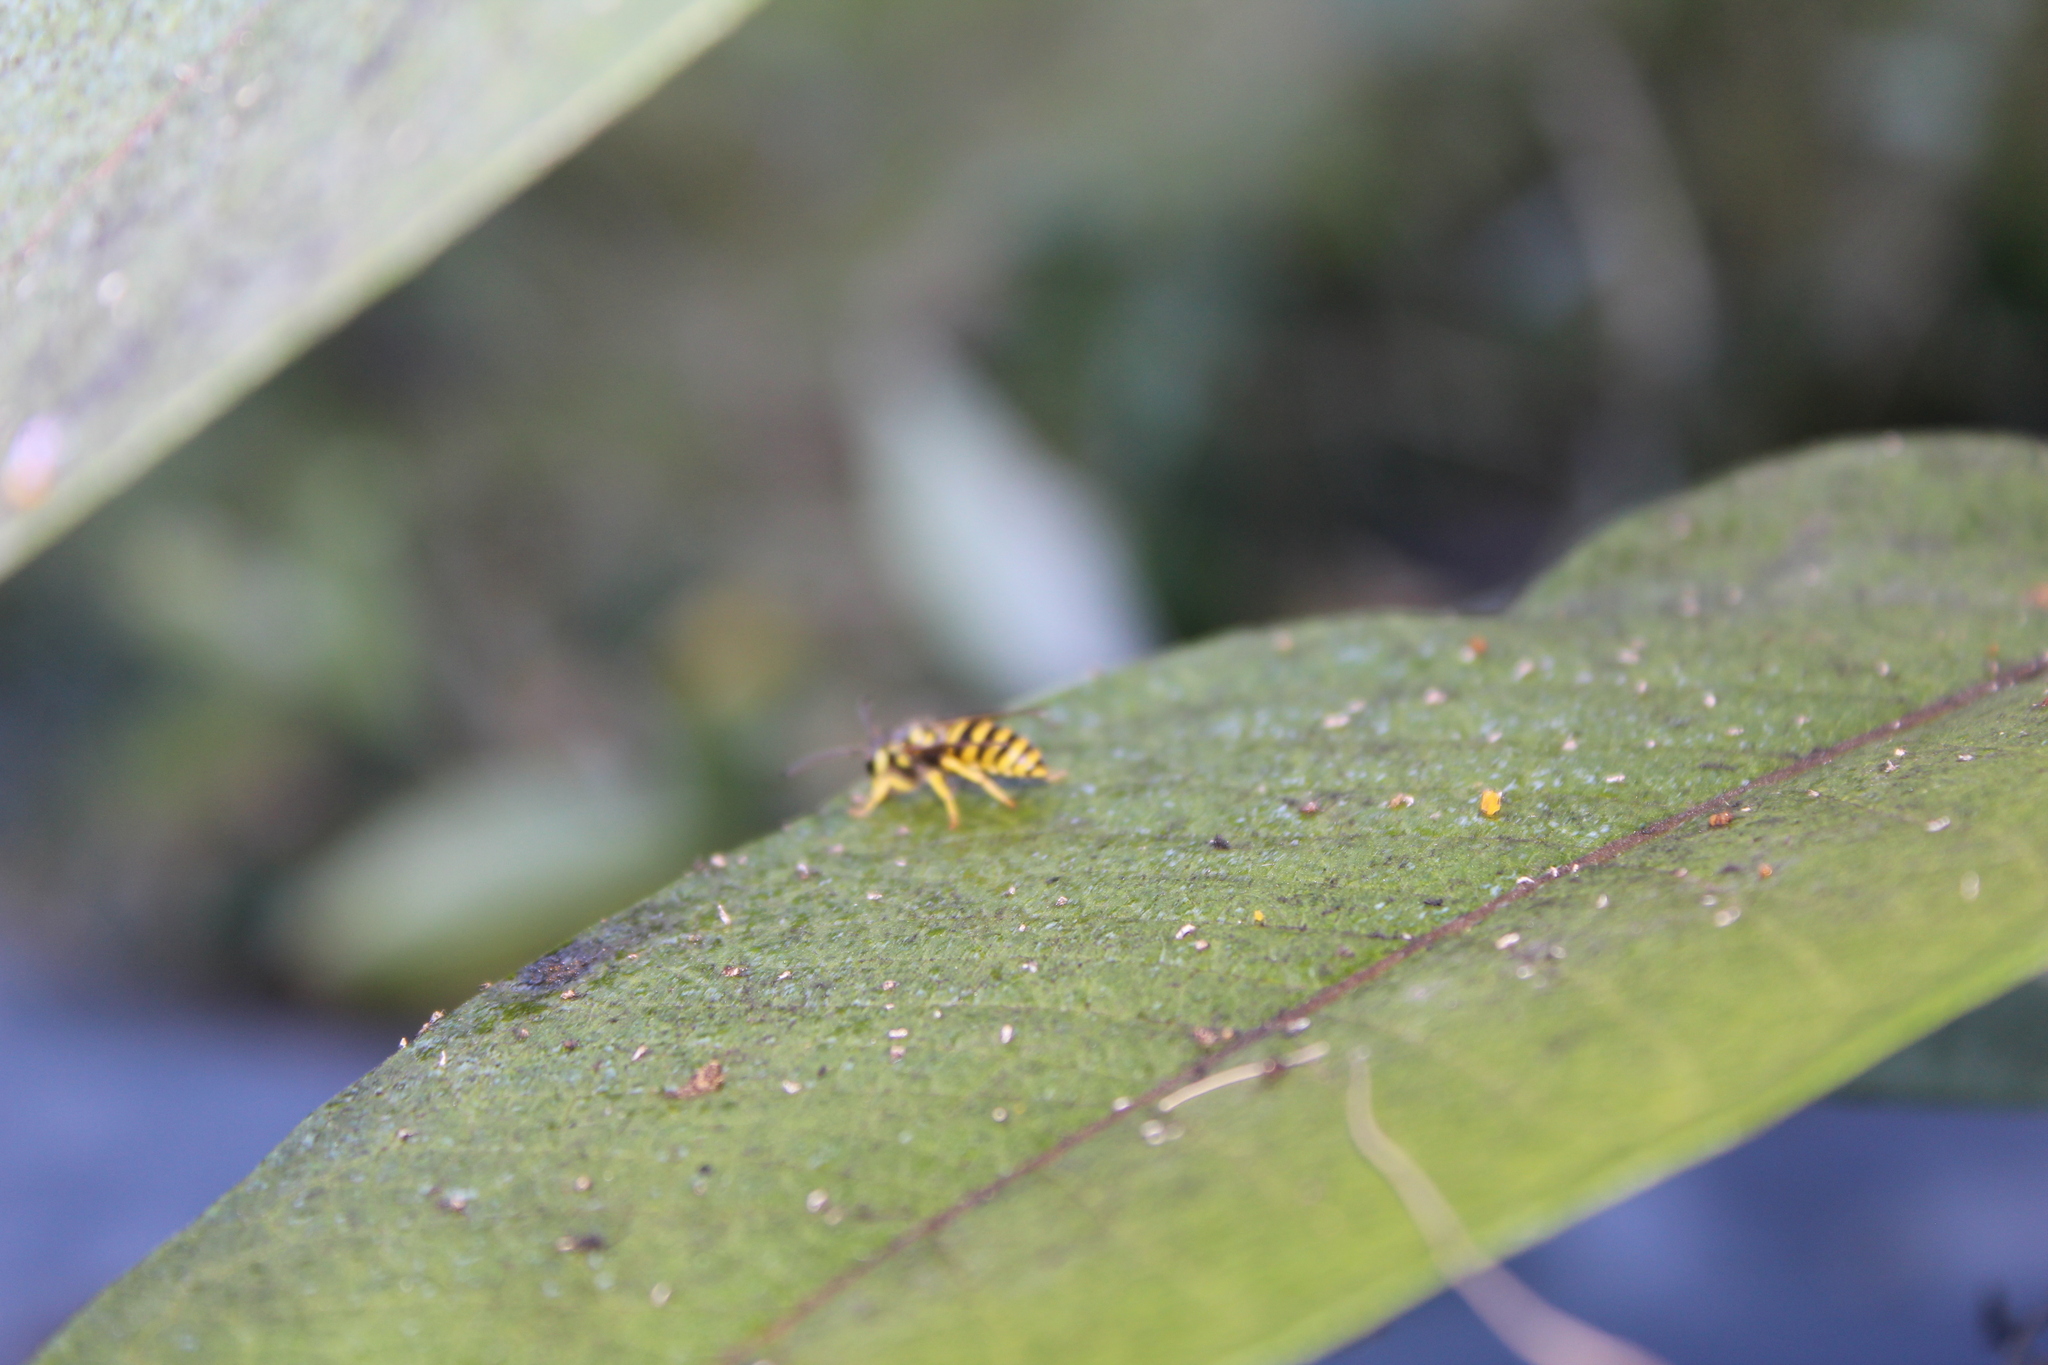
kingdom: Animalia
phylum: Arthropoda
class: Insecta
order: Hymenoptera
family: Vespidae
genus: Vespula
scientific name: Vespula maculifrons
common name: Eastern yellowjacket
